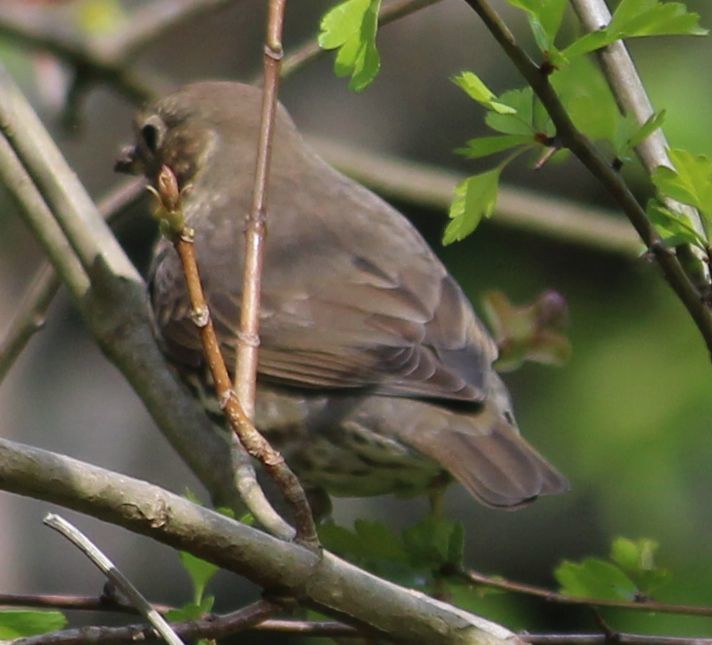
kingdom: Animalia
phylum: Chordata
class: Aves
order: Passeriformes
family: Turdidae
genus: Turdus
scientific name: Turdus philomelos
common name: Song thrush
